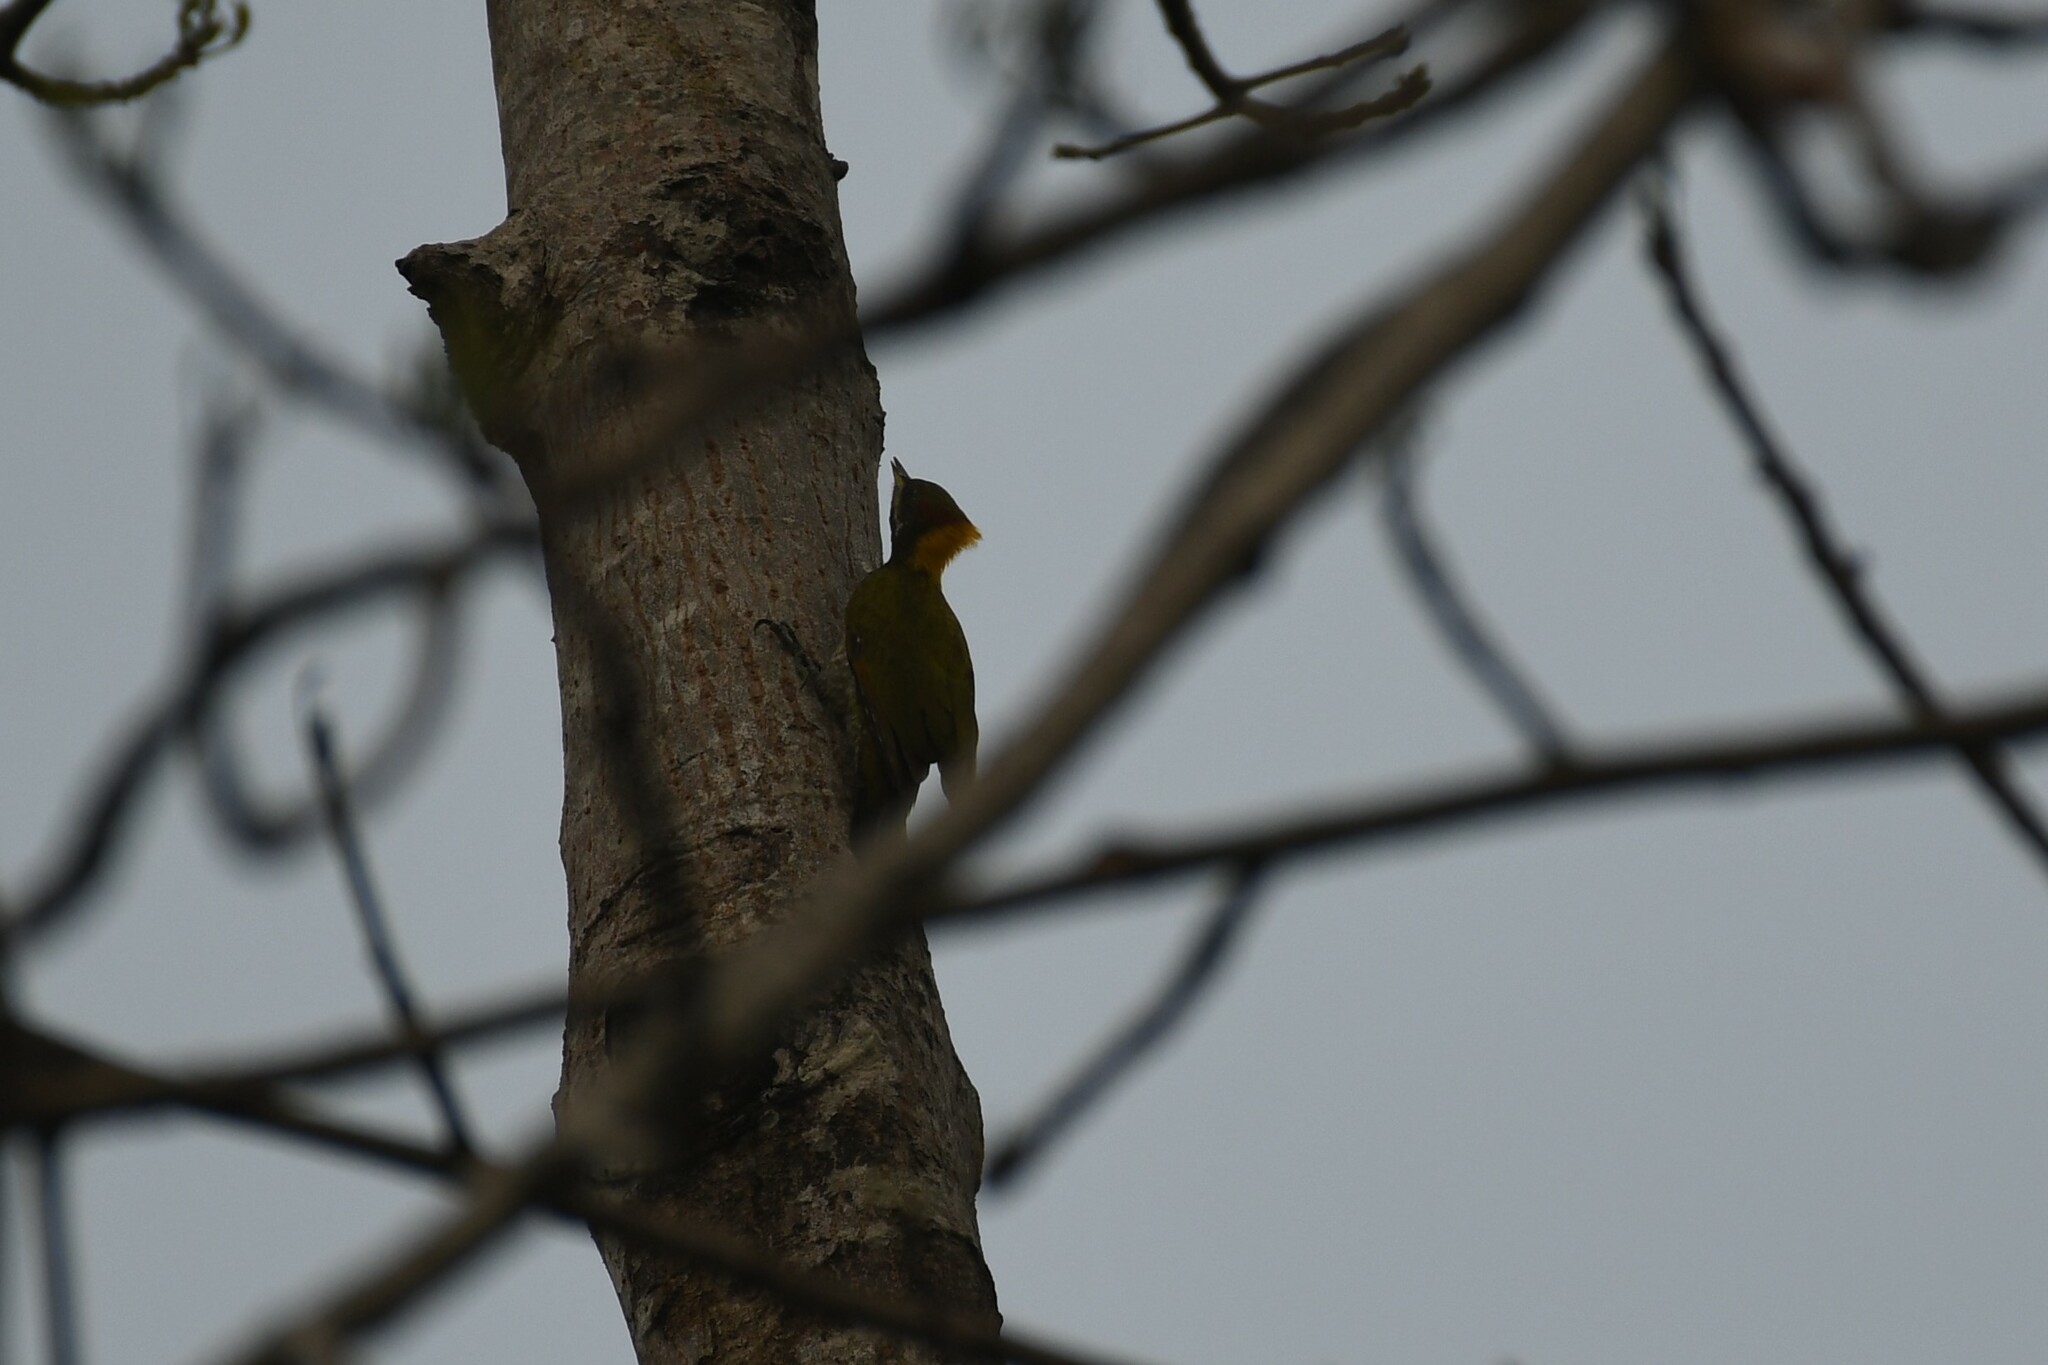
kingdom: Animalia
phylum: Chordata
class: Aves
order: Piciformes
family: Picidae
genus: Picus
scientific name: Picus chlorolophus
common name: Lesser yellownape
